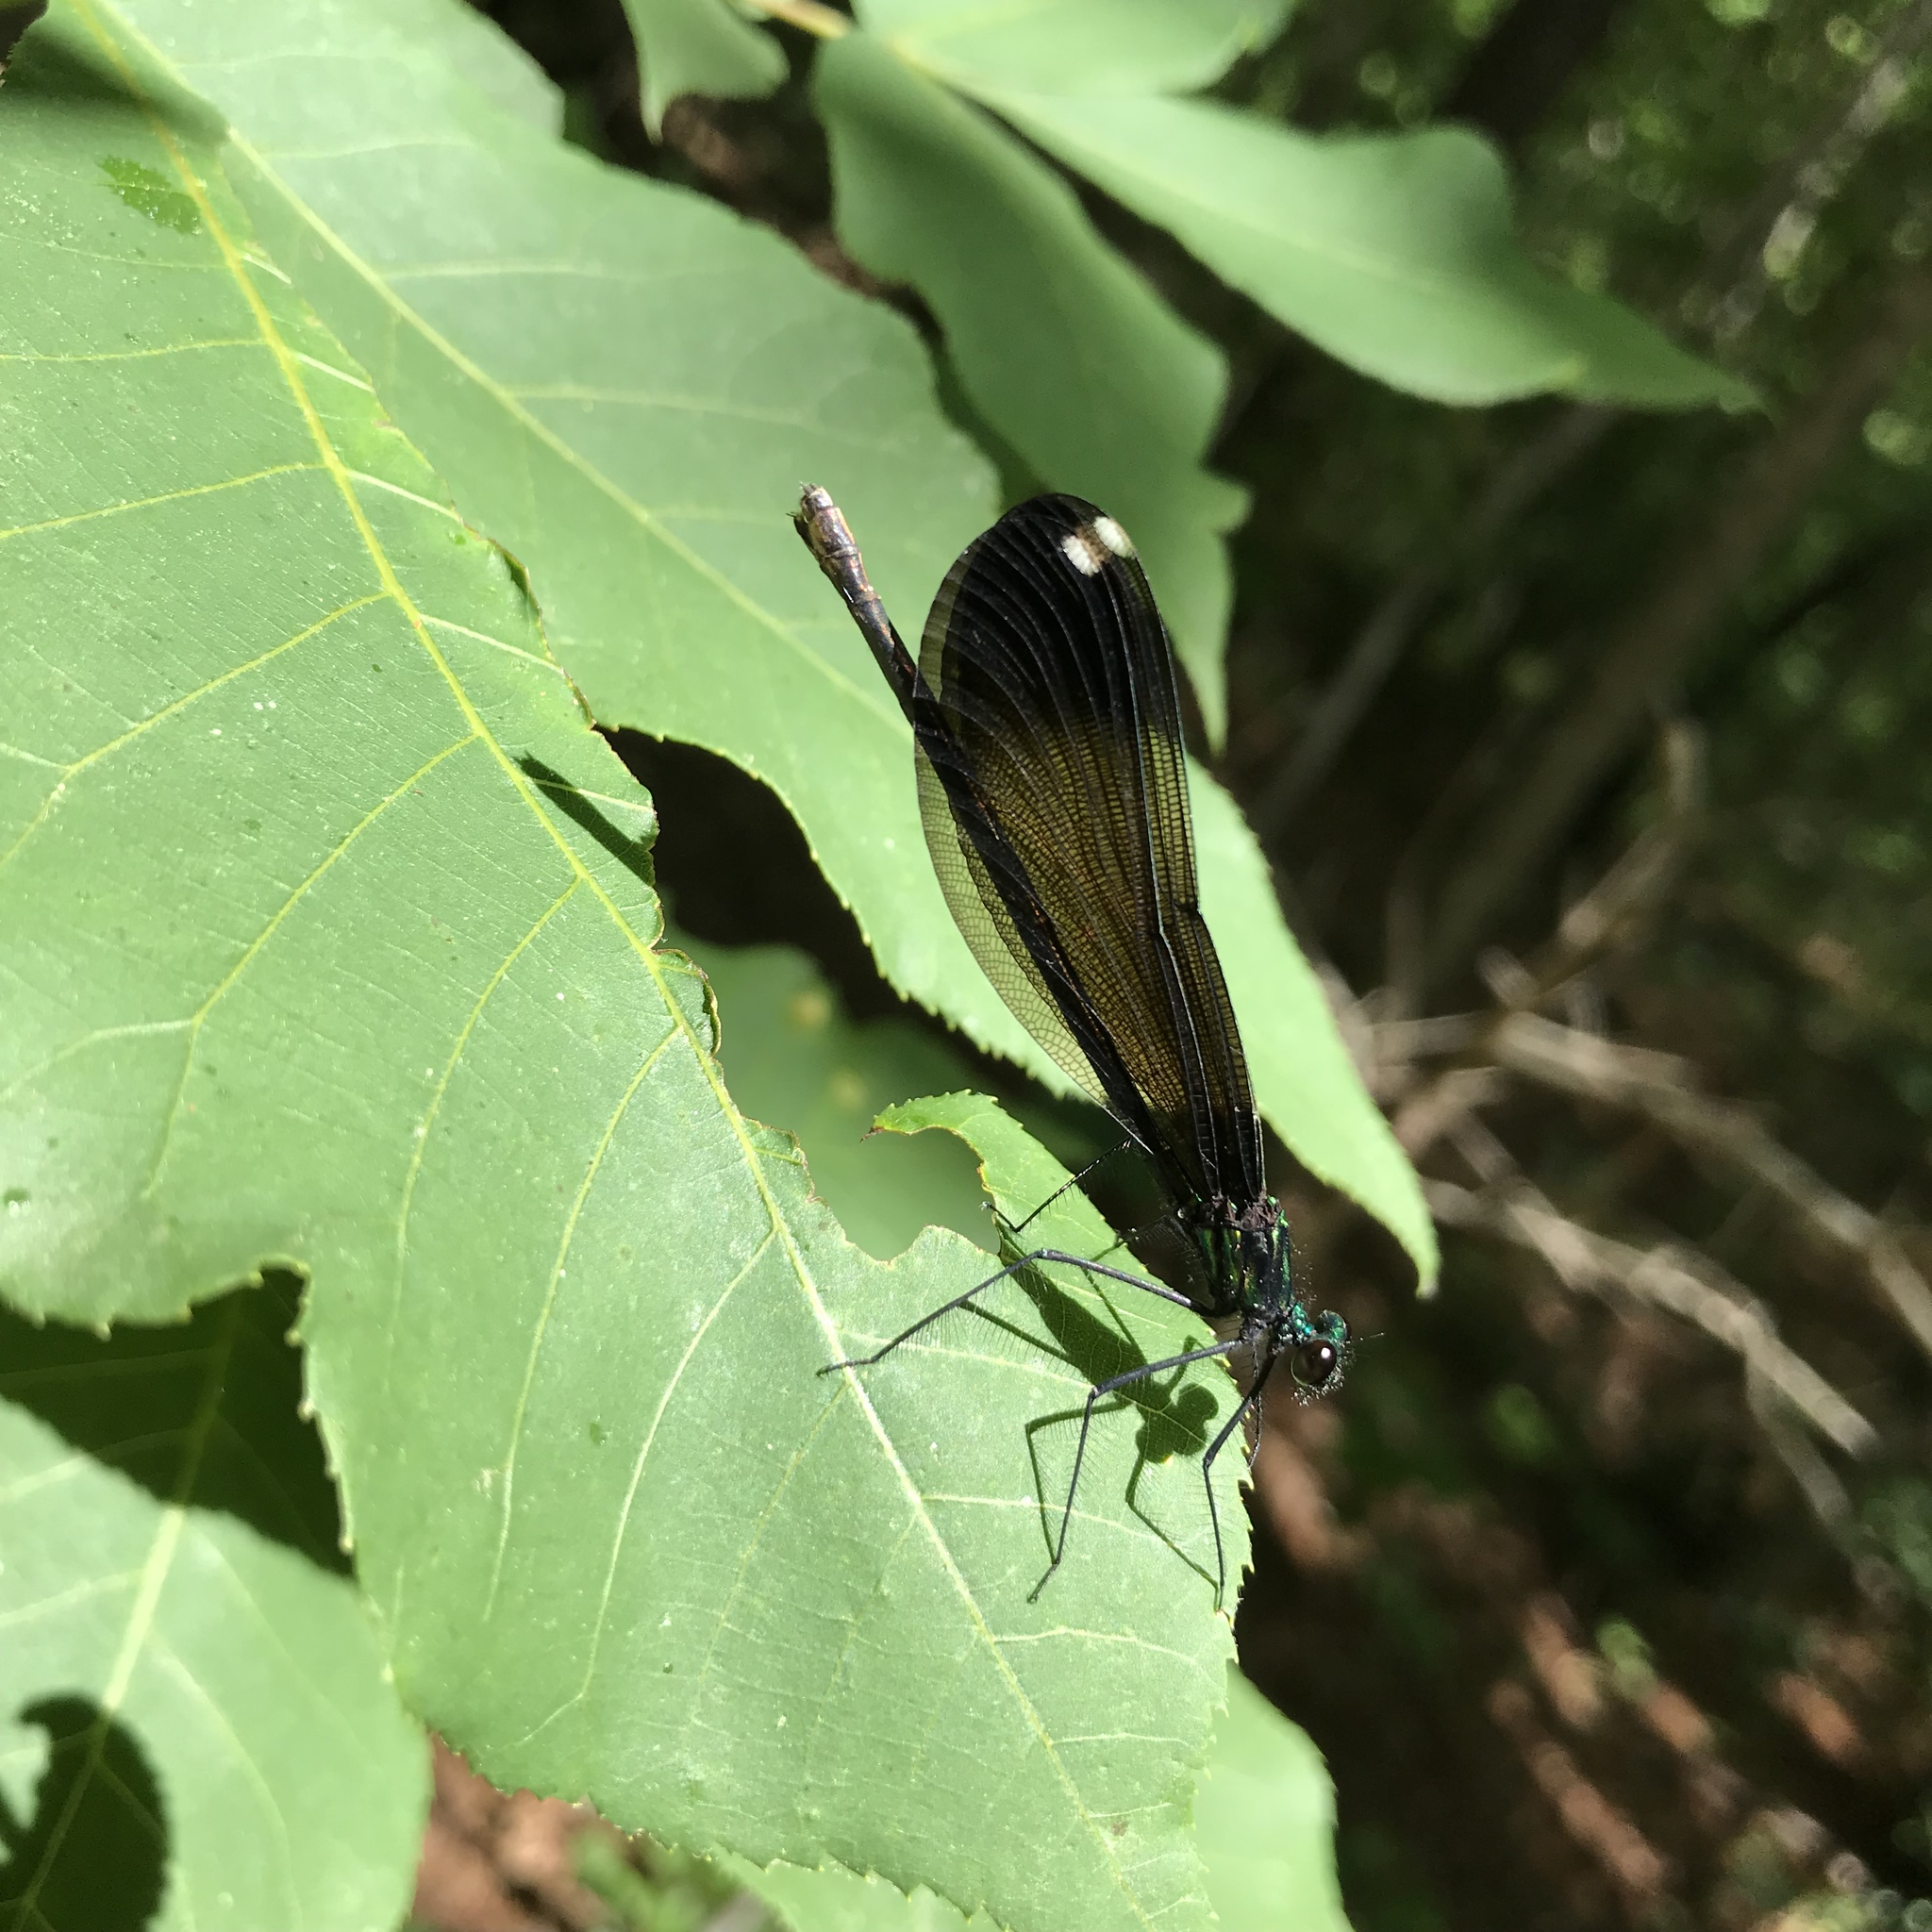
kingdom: Animalia
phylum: Arthropoda
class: Insecta
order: Odonata
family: Calopterygidae
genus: Calopteryx
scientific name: Calopteryx maculata
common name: Ebony jewelwing
